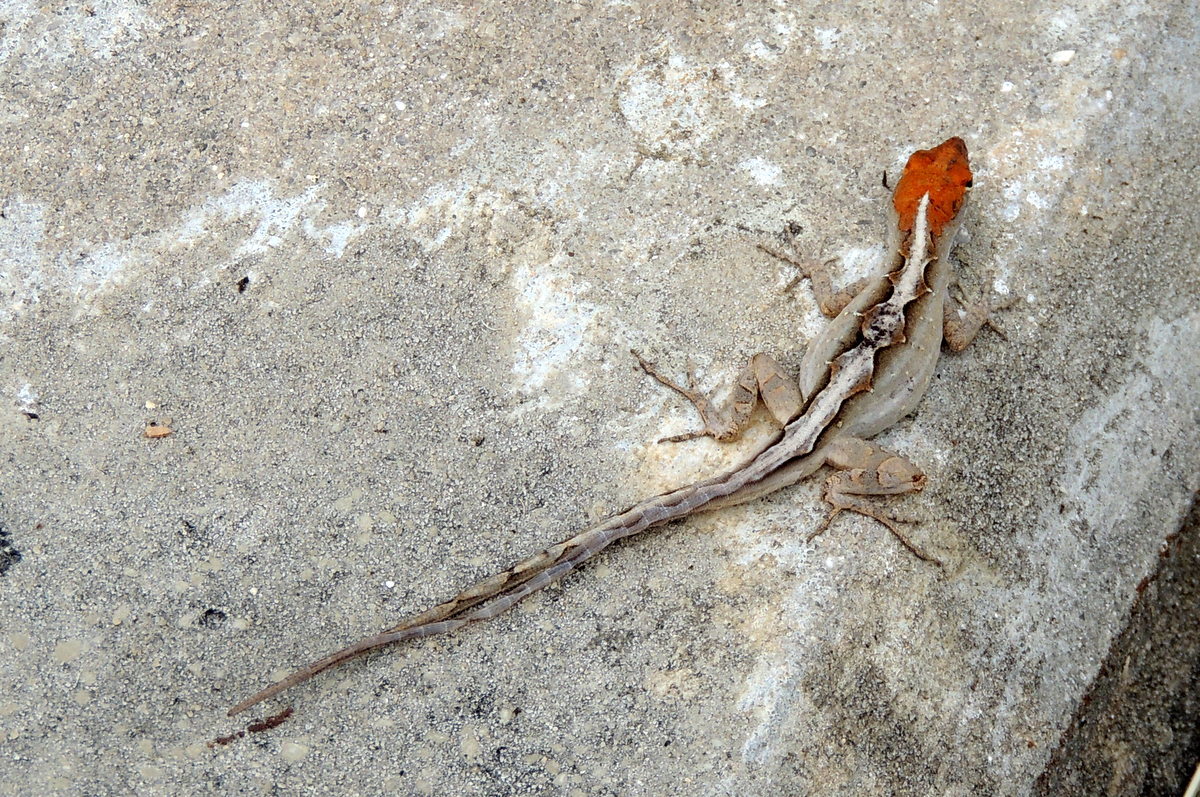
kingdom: Animalia
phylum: Chordata
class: Squamata
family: Dactyloidae
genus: Anolis
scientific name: Anolis sagrei
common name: Brown anole
